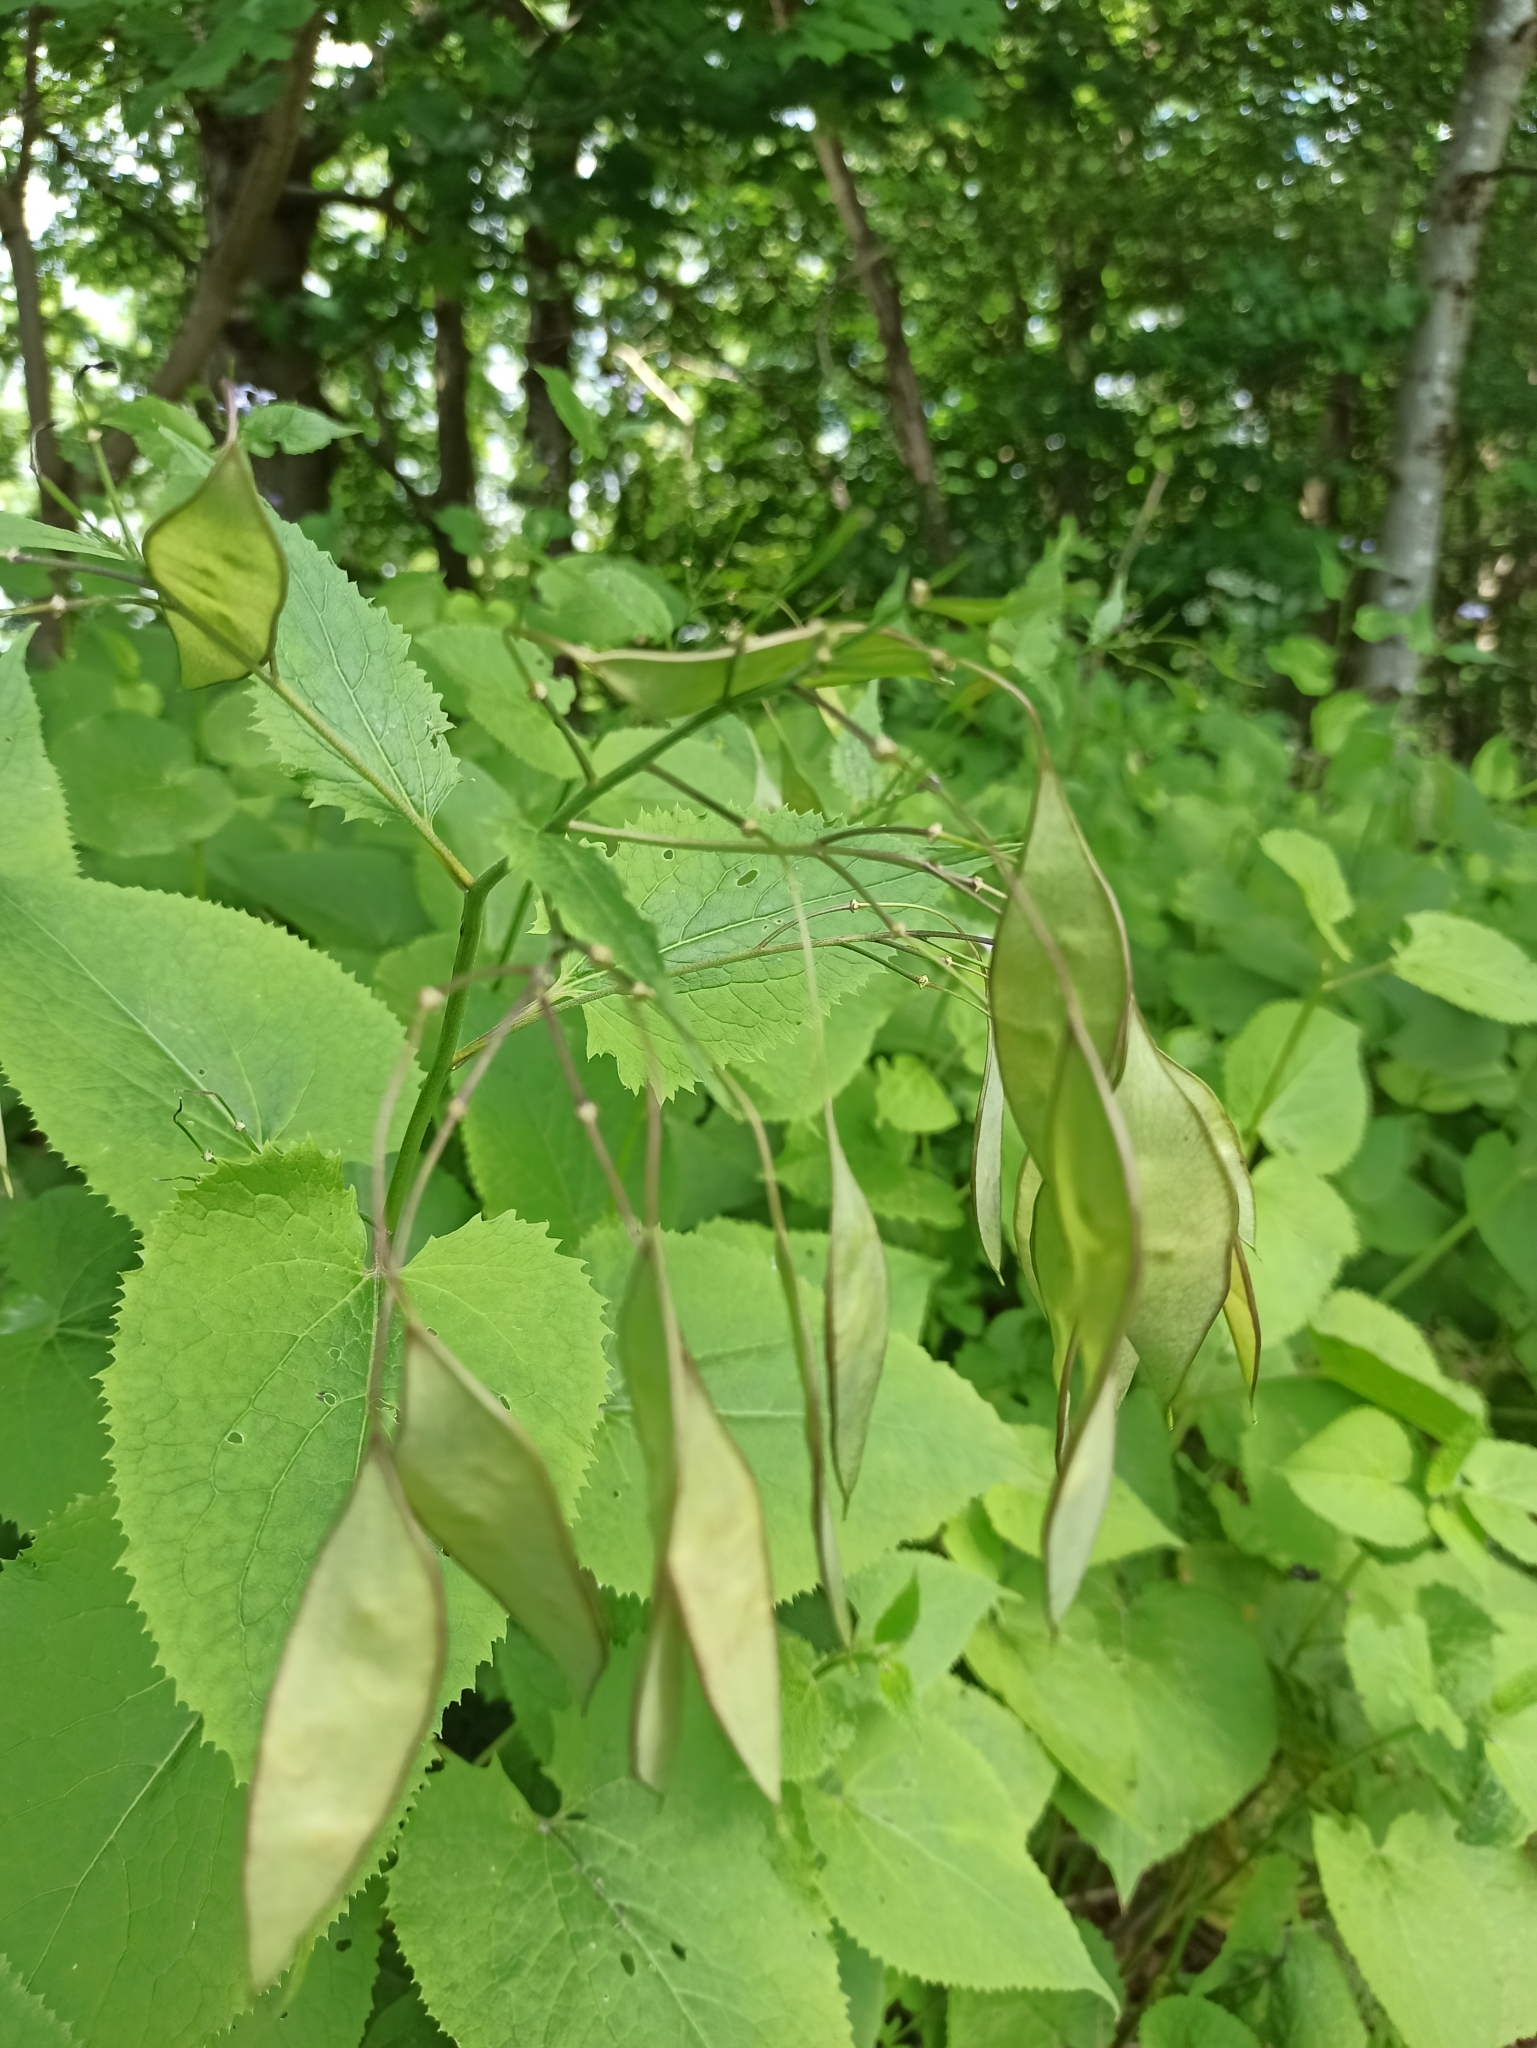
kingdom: Plantae
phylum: Tracheophyta
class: Magnoliopsida
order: Brassicales
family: Brassicaceae
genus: Lunaria
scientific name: Lunaria rediviva
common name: Perennial honesty
